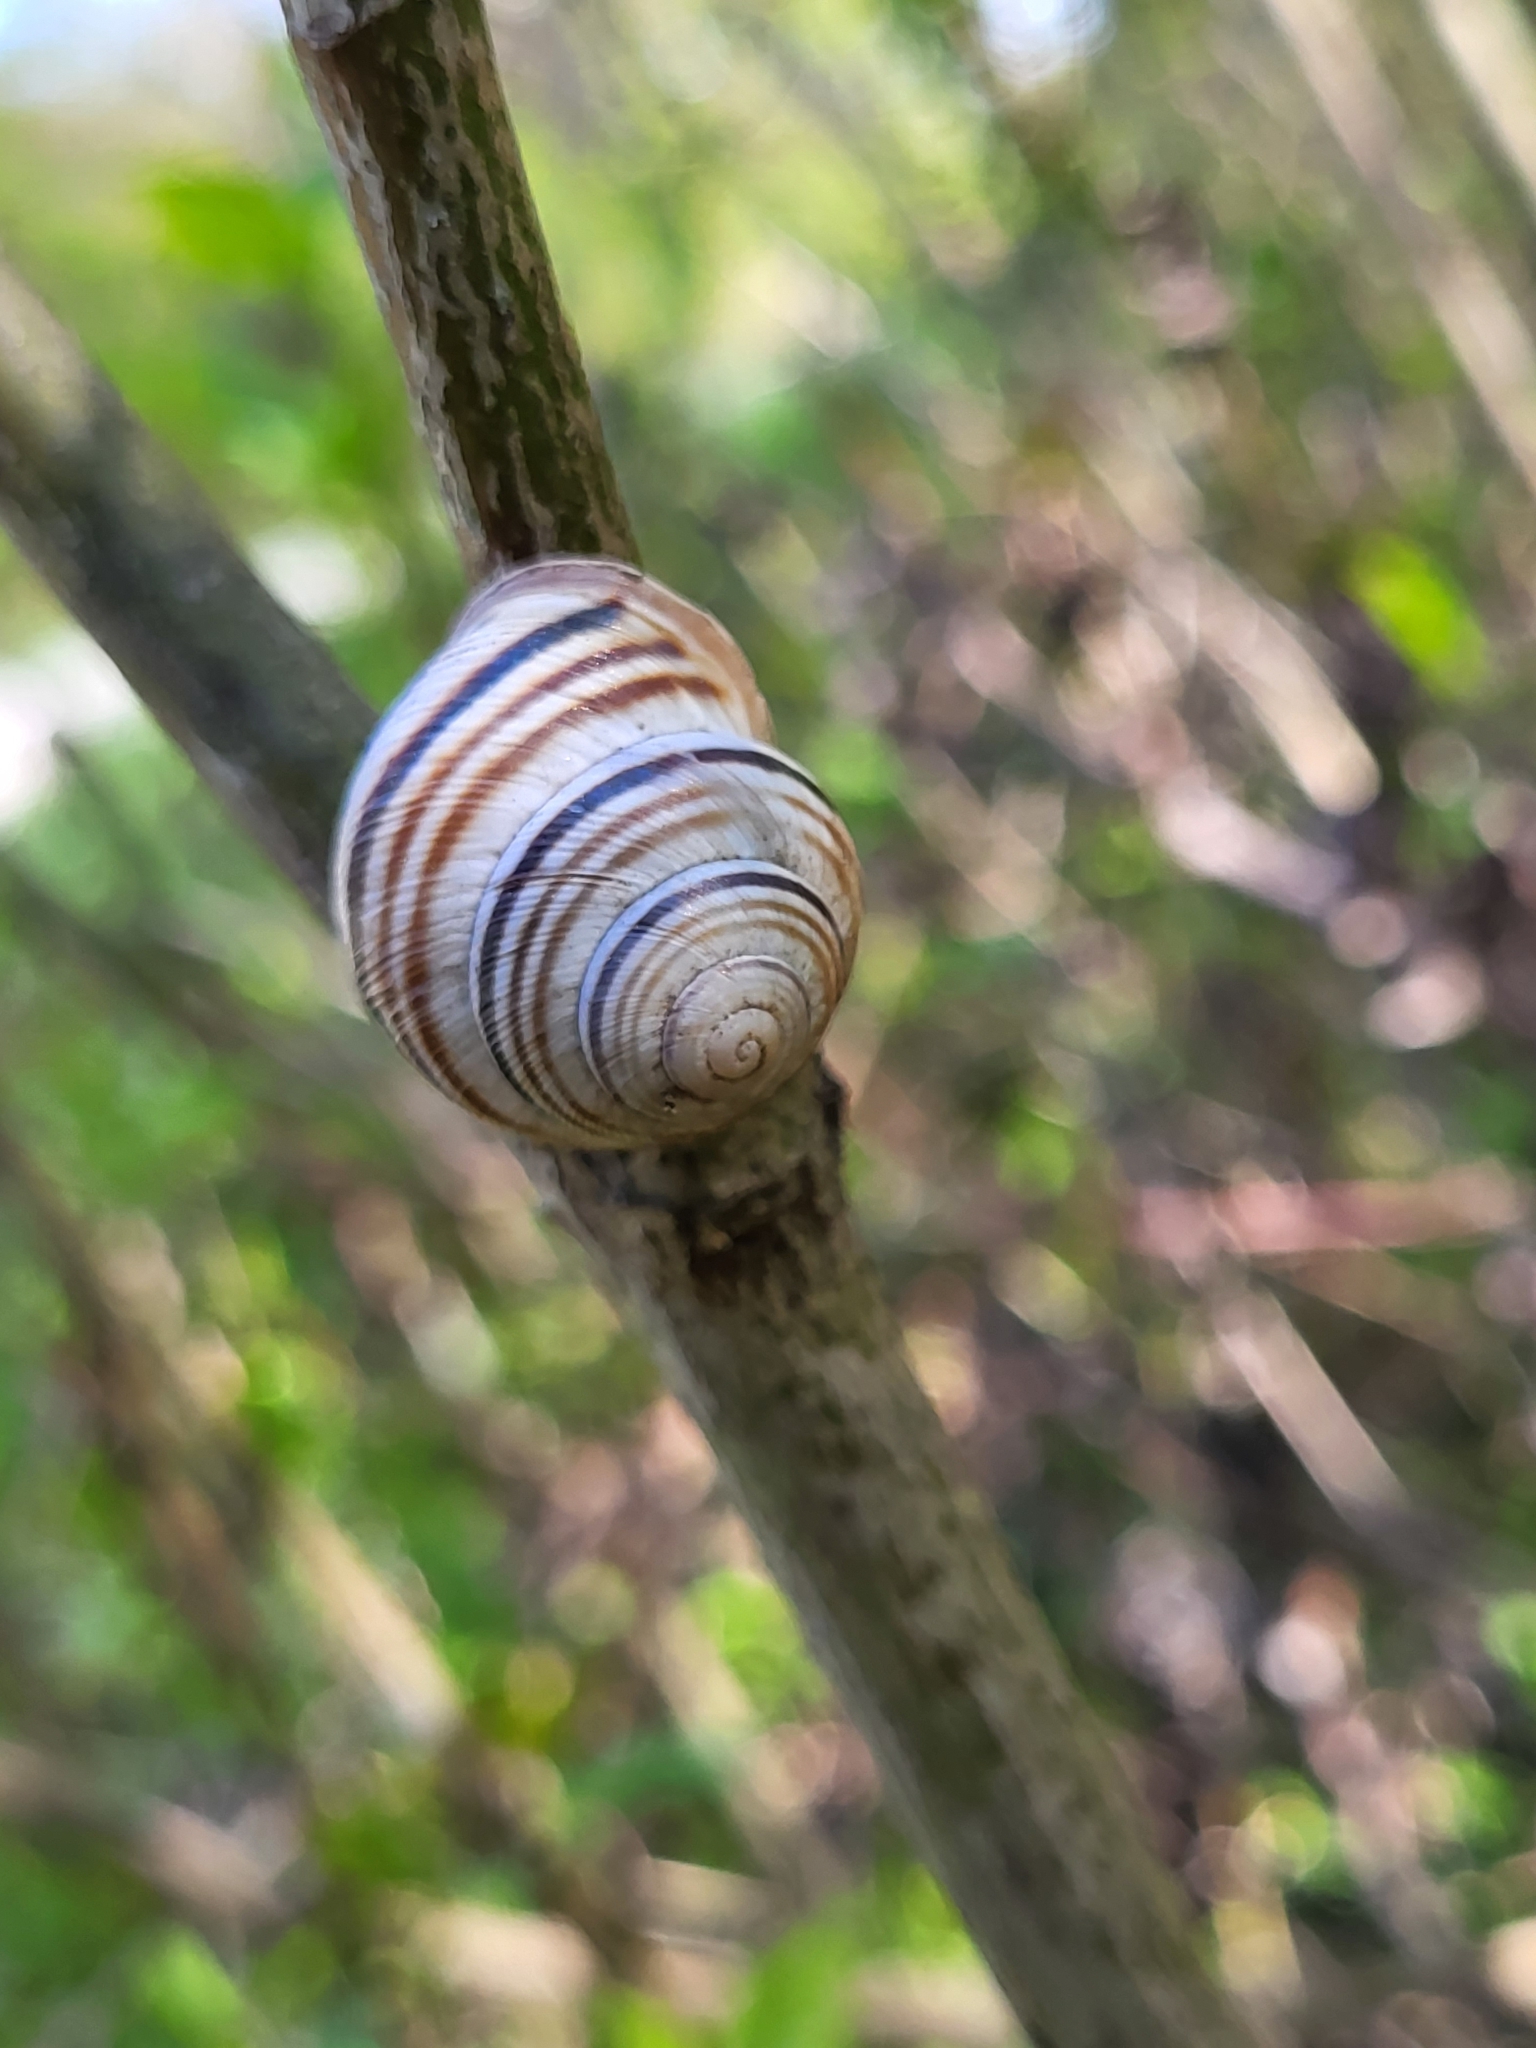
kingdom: Animalia
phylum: Mollusca
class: Gastropoda
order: Stylommatophora
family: Helicidae
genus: Caucasotachea
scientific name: Caucasotachea vindobonensis
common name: European helicid land snail
